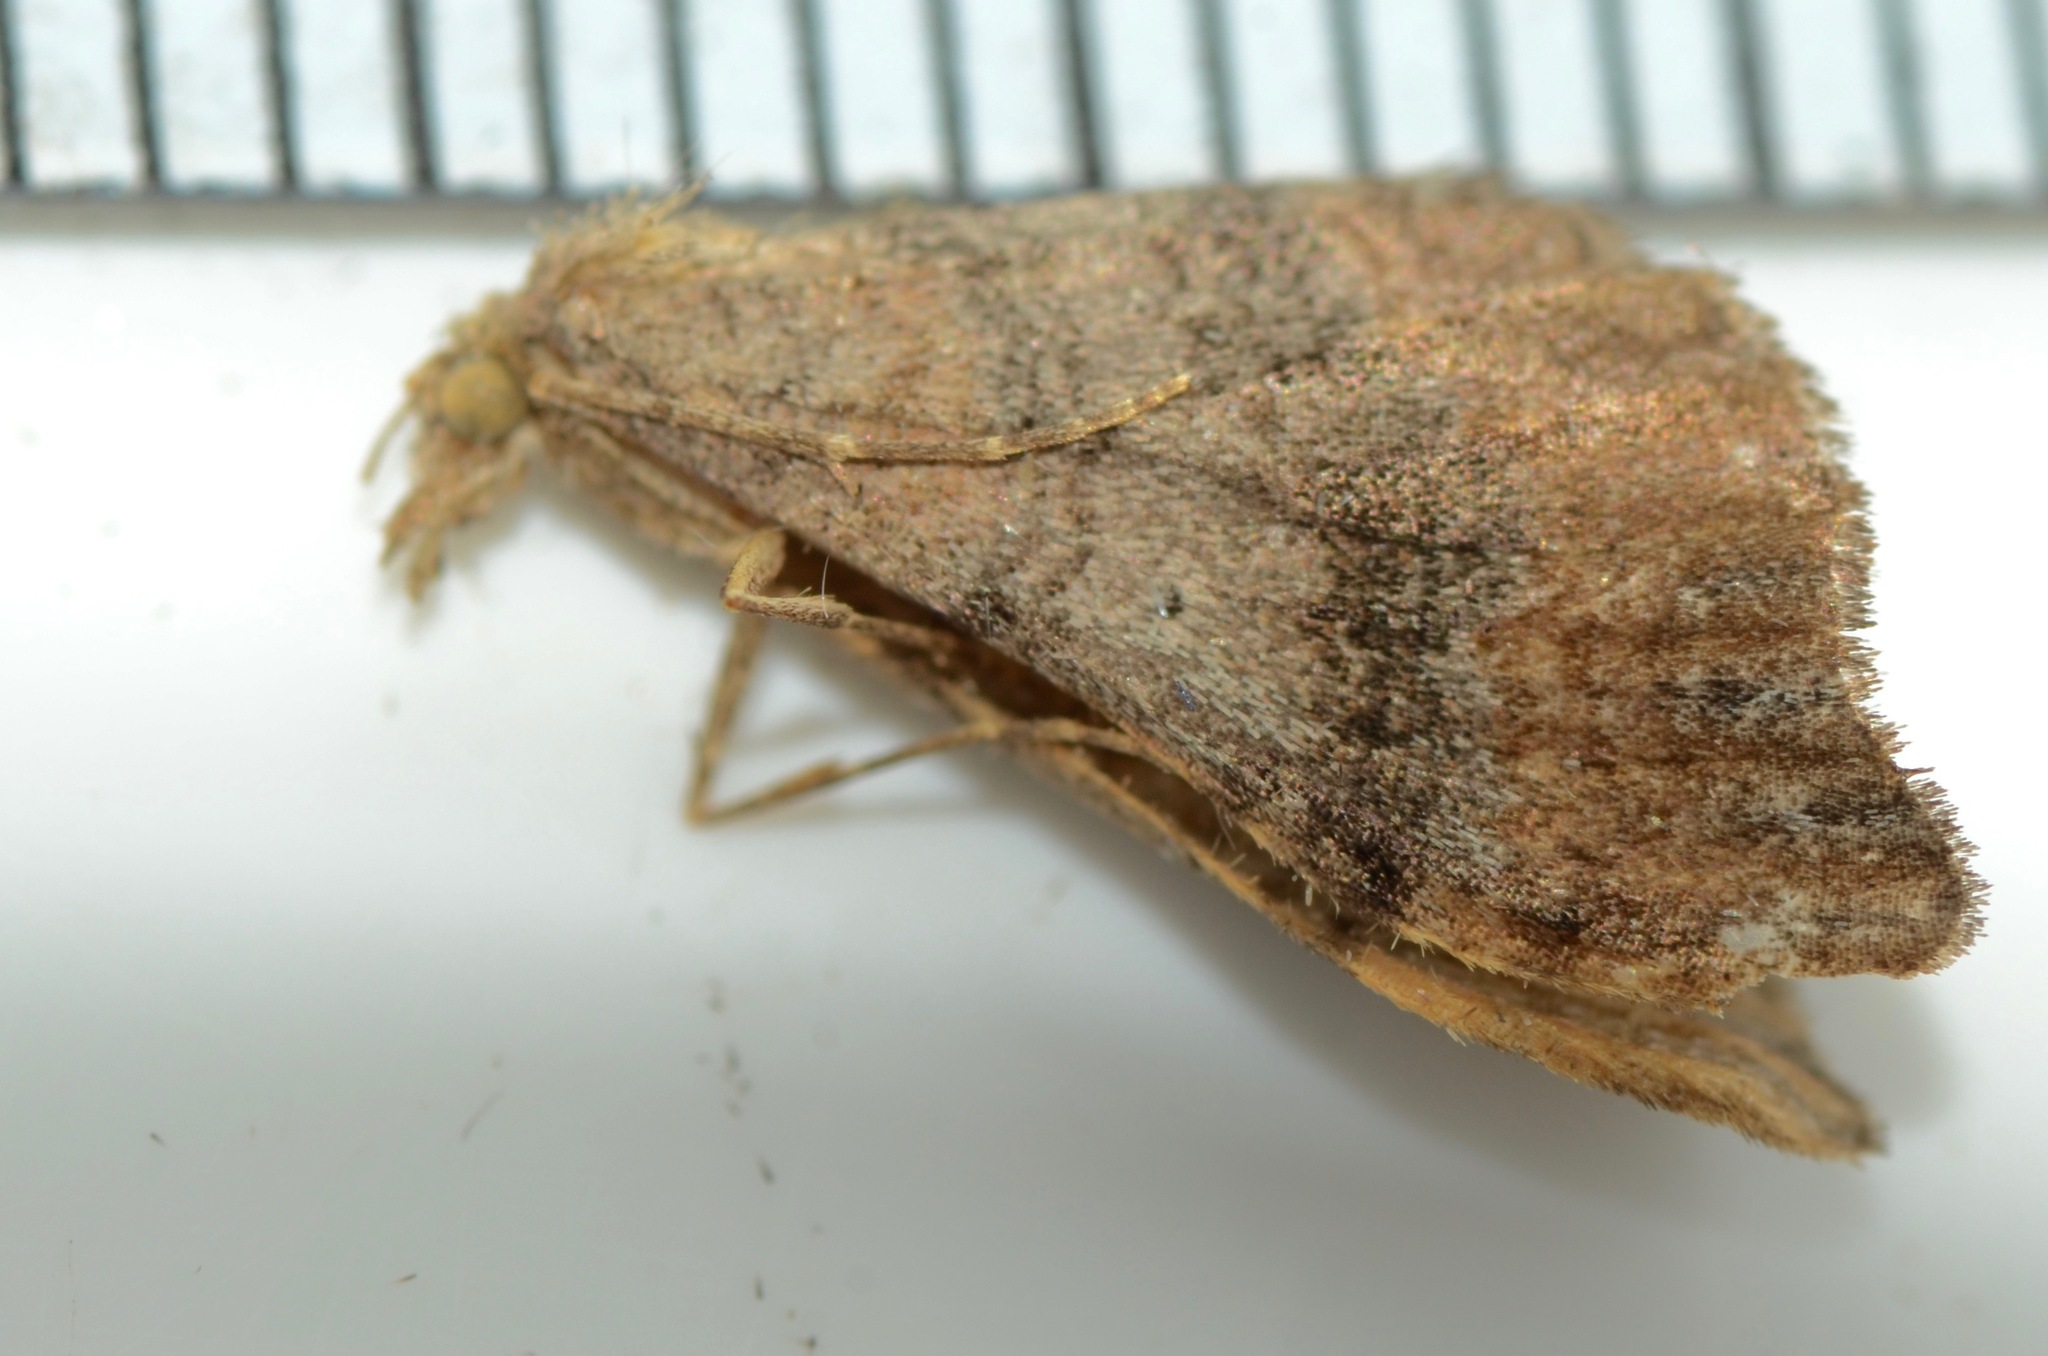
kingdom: Animalia
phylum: Arthropoda
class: Insecta
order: Lepidoptera
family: Geometridae
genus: Homodotis
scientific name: Homodotis megaspilata
